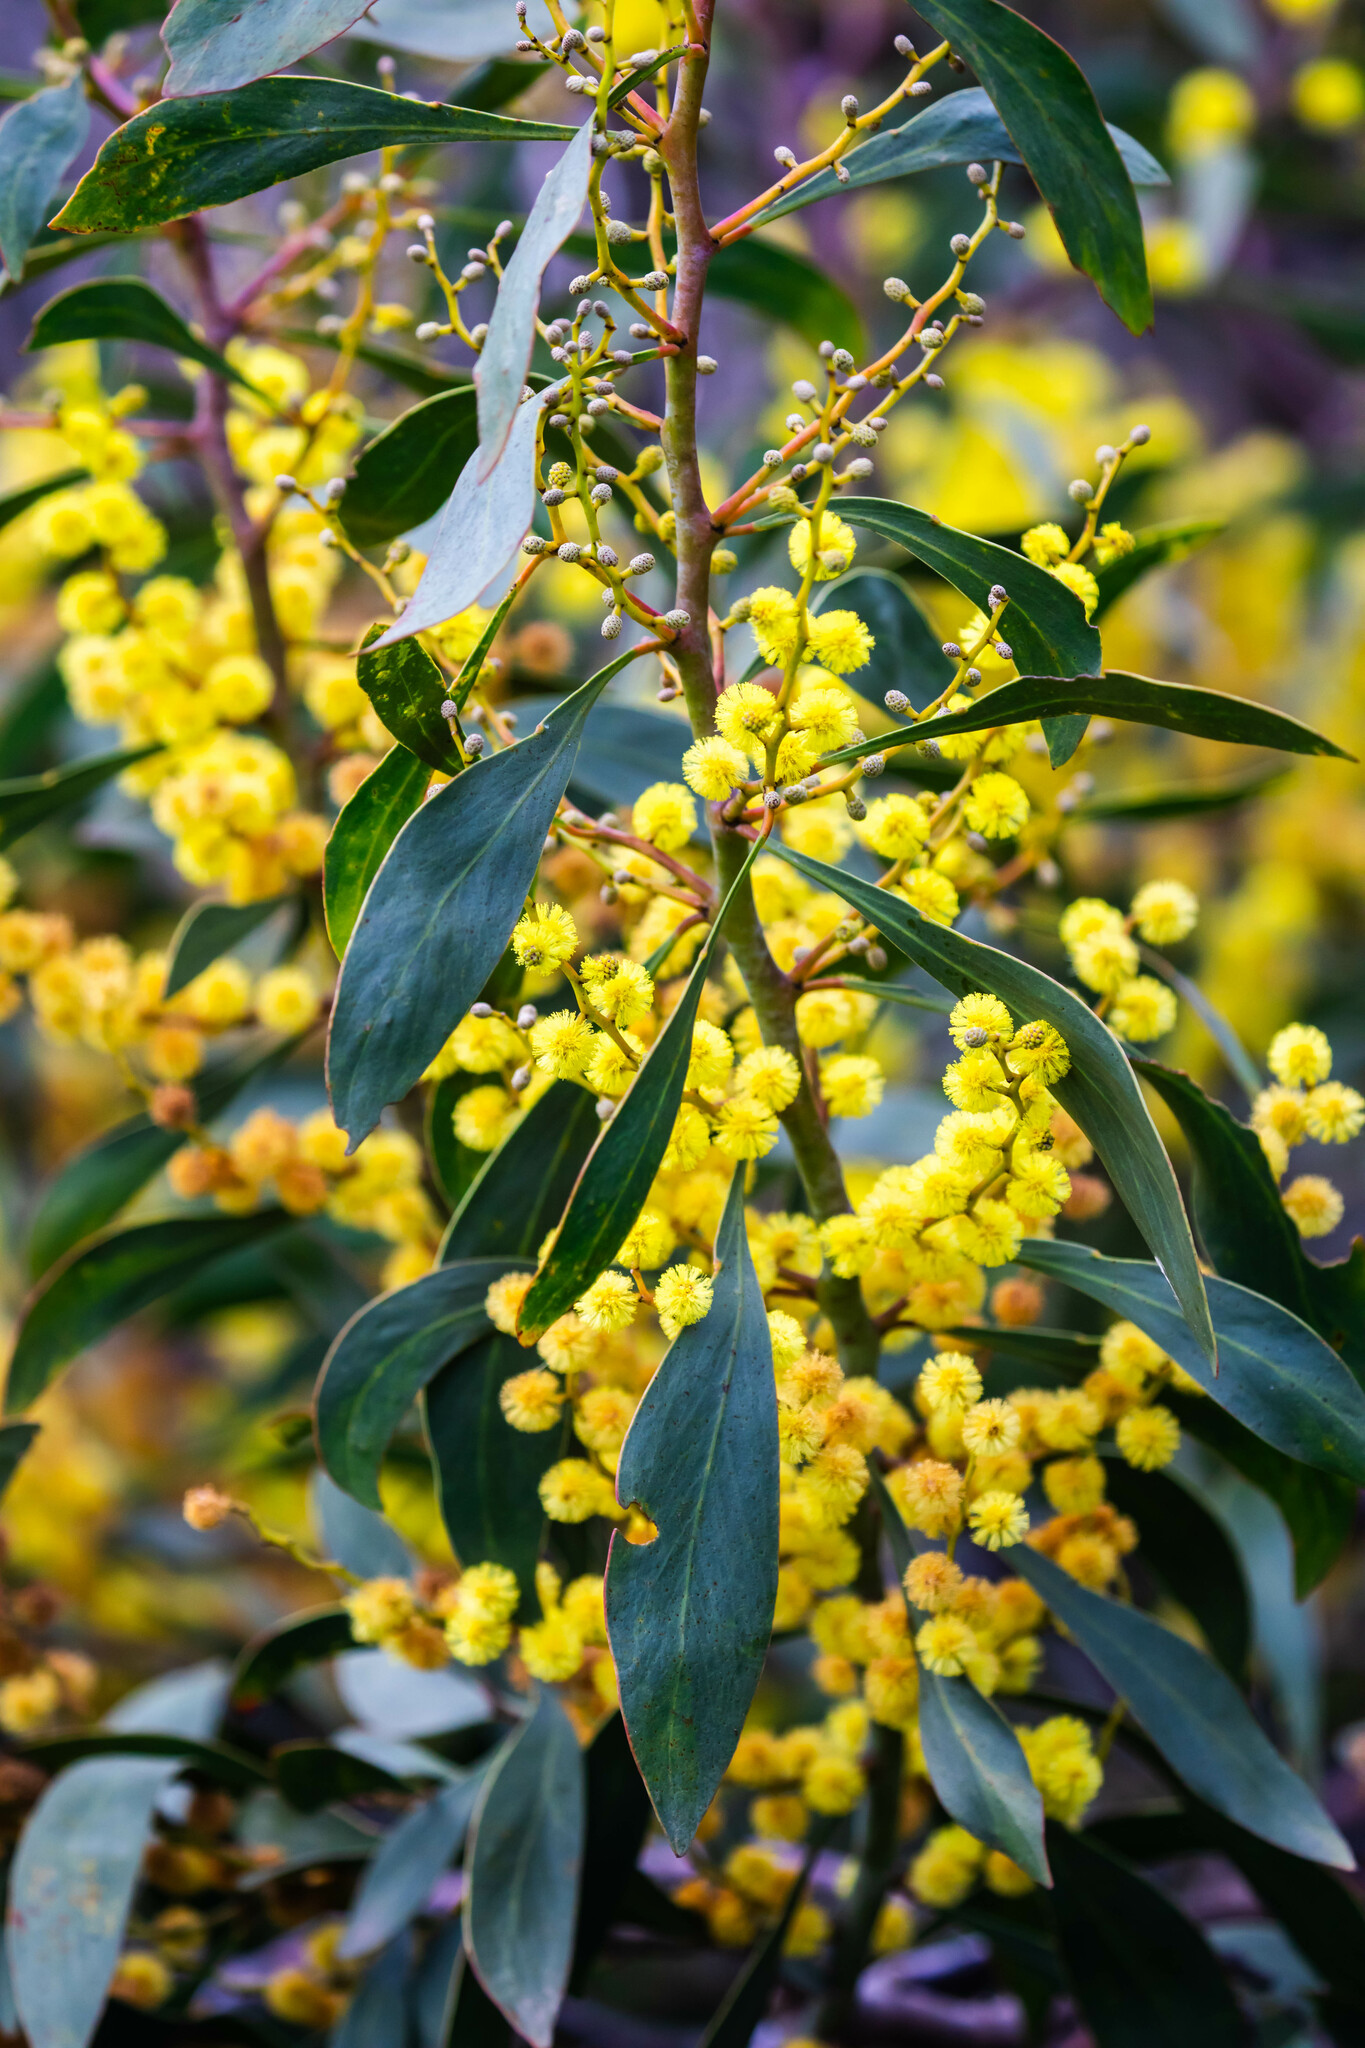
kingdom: Plantae
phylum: Tracheophyta
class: Magnoliopsida
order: Fabales
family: Fabaceae
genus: Acacia
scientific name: Acacia pycnantha
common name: Golden wattle
